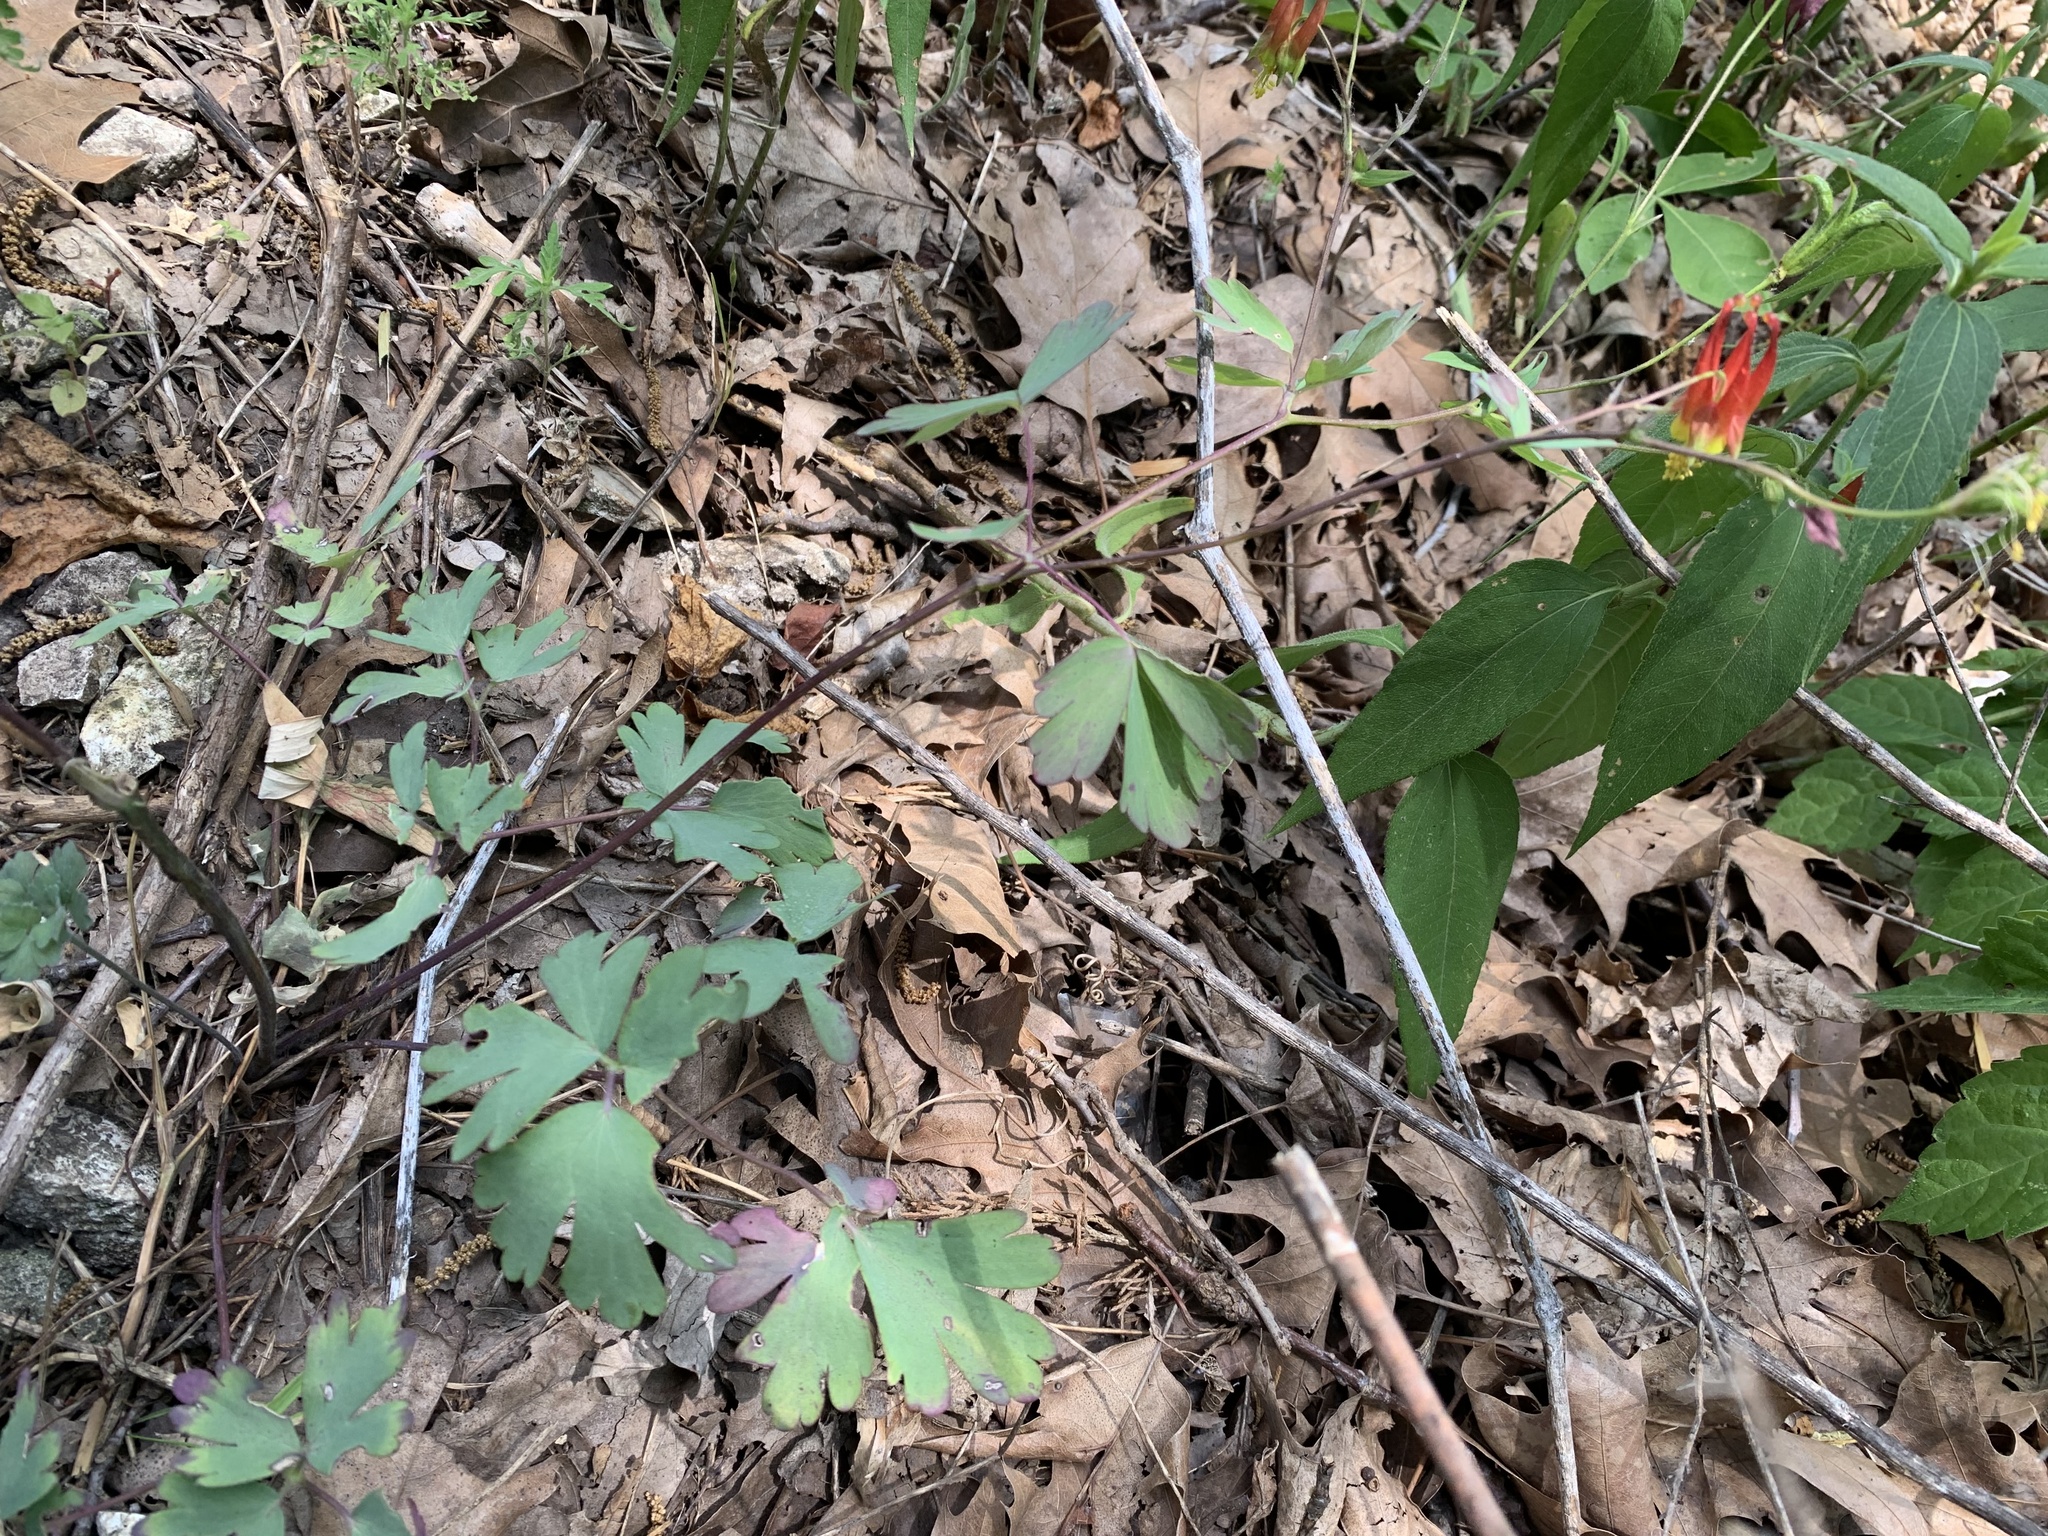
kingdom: Plantae
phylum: Tracheophyta
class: Magnoliopsida
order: Ranunculales
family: Ranunculaceae
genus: Aquilegia
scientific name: Aquilegia canadensis
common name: American columbine
